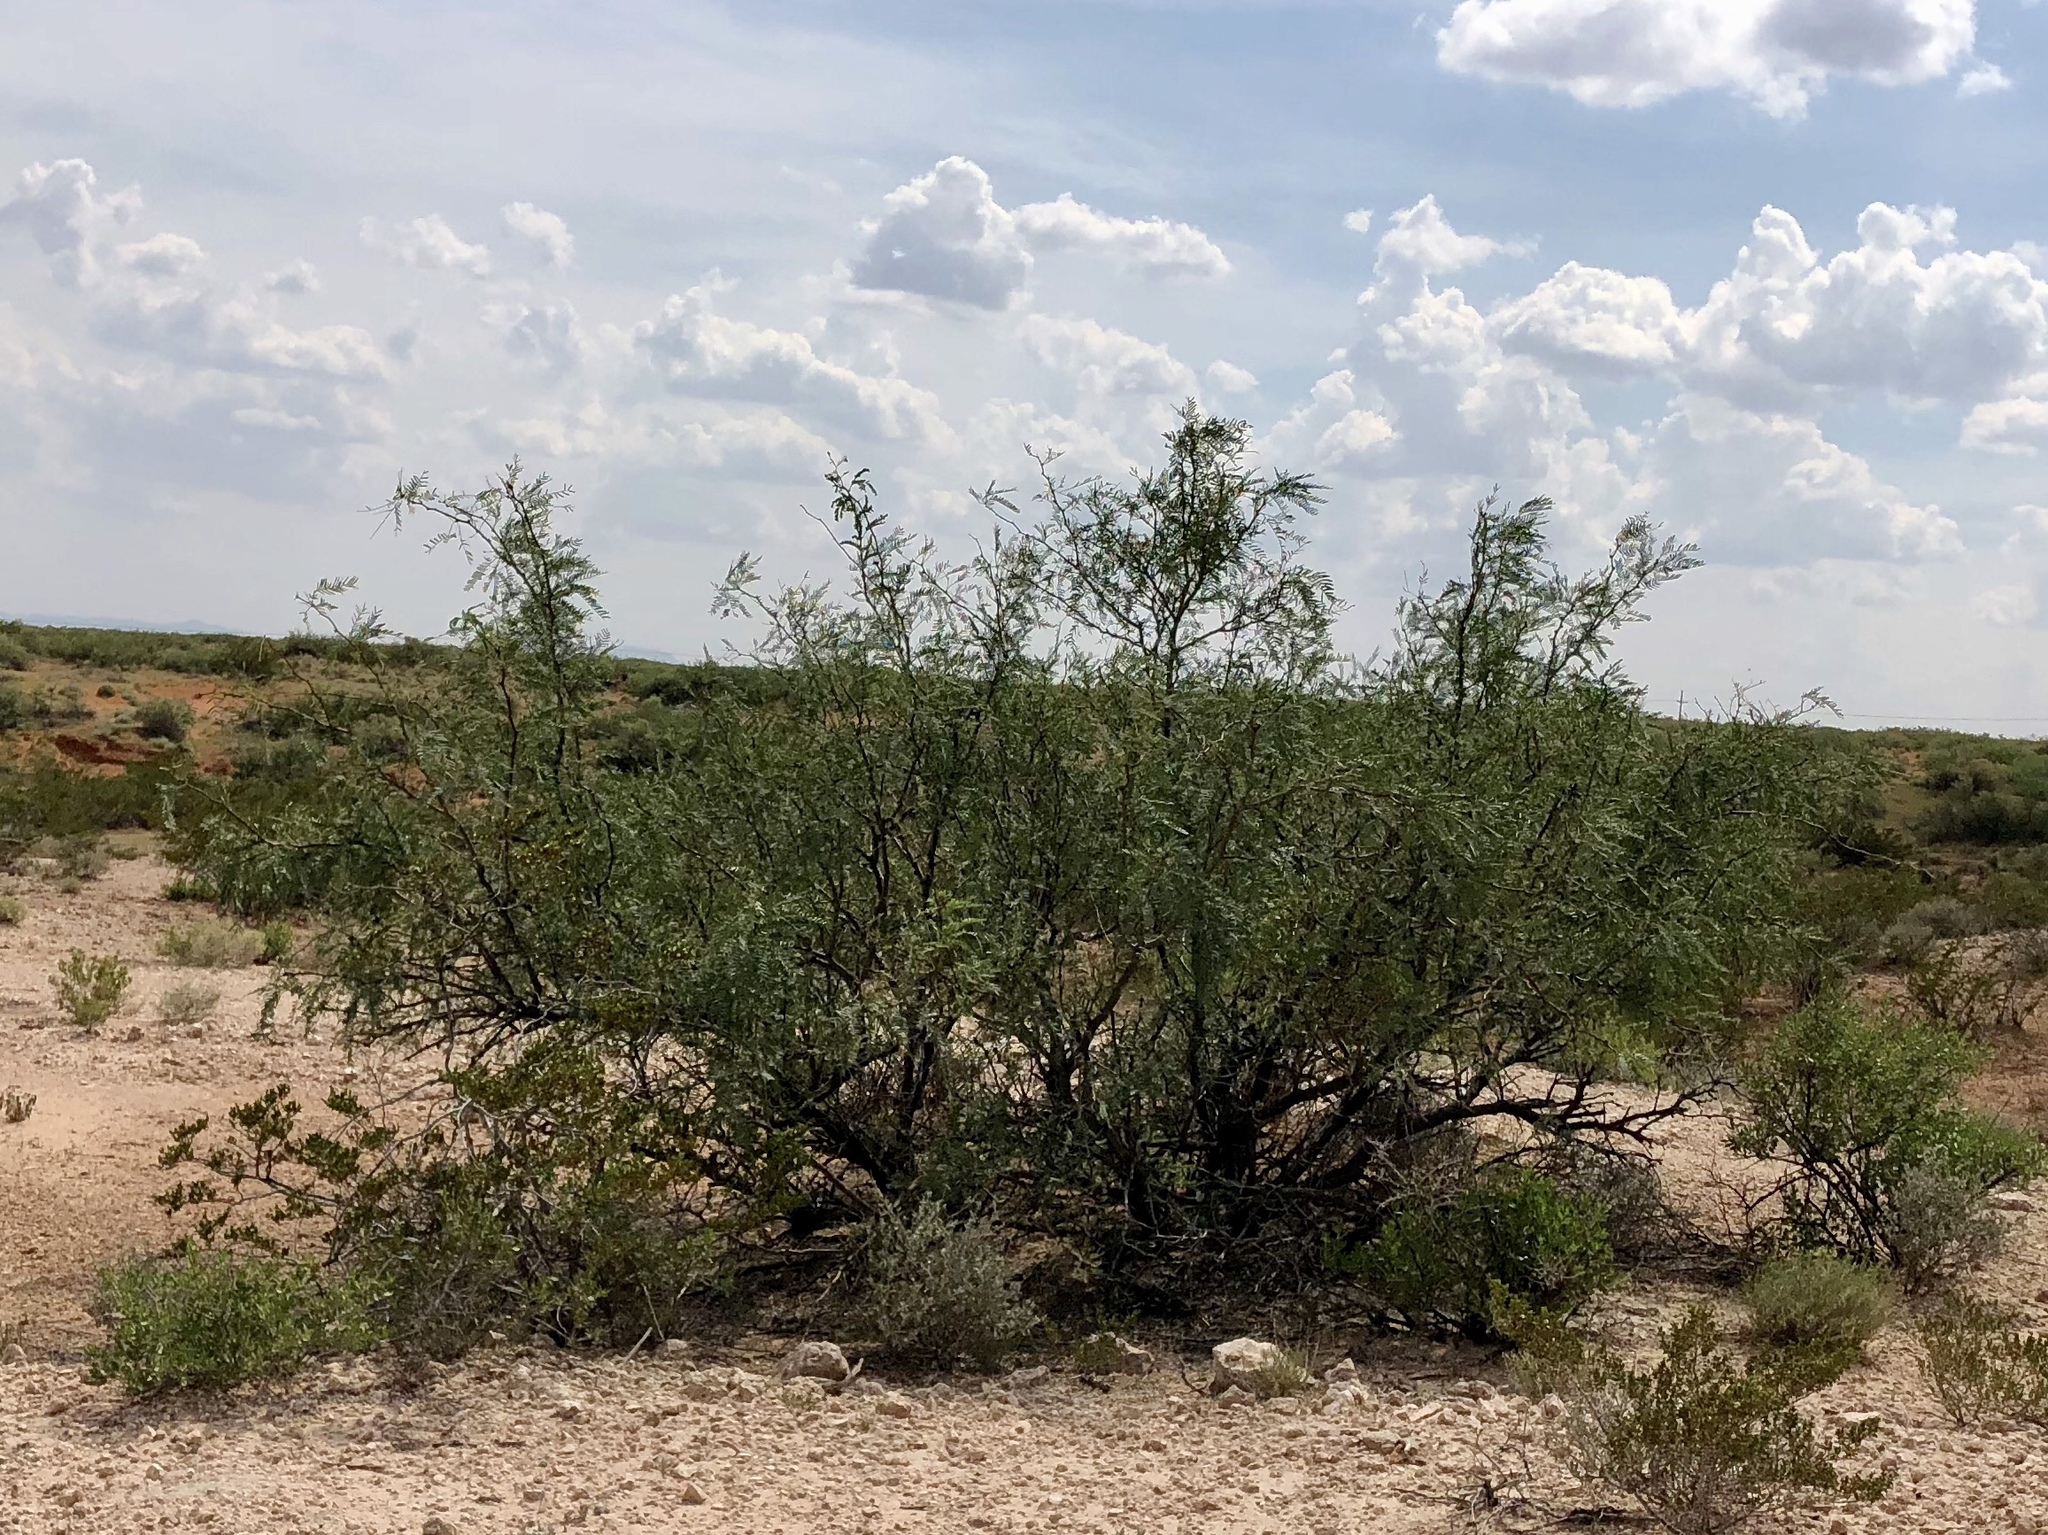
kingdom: Plantae
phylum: Tracheophyta
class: Magnoliopsida
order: Fabales
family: Fabaceae
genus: Prosopis
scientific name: Prosopis glandulosa
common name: Honey mesquite
